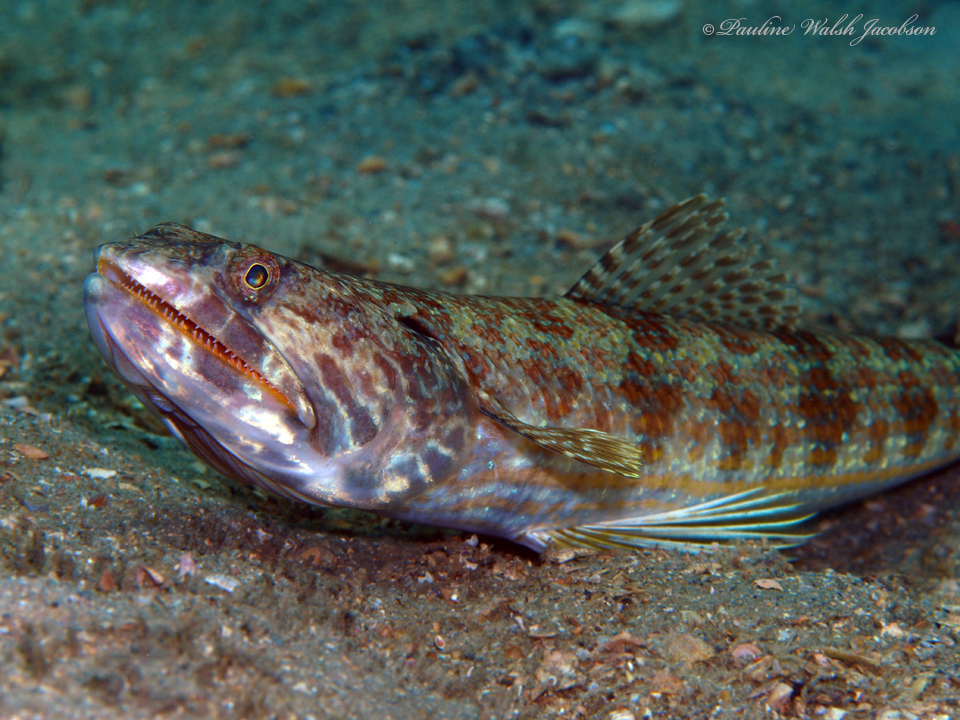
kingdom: Animalia
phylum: Chordata
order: Aulopiformes
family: Synodontidae
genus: Synodus
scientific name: Synodus intermedius
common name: Sand diver
